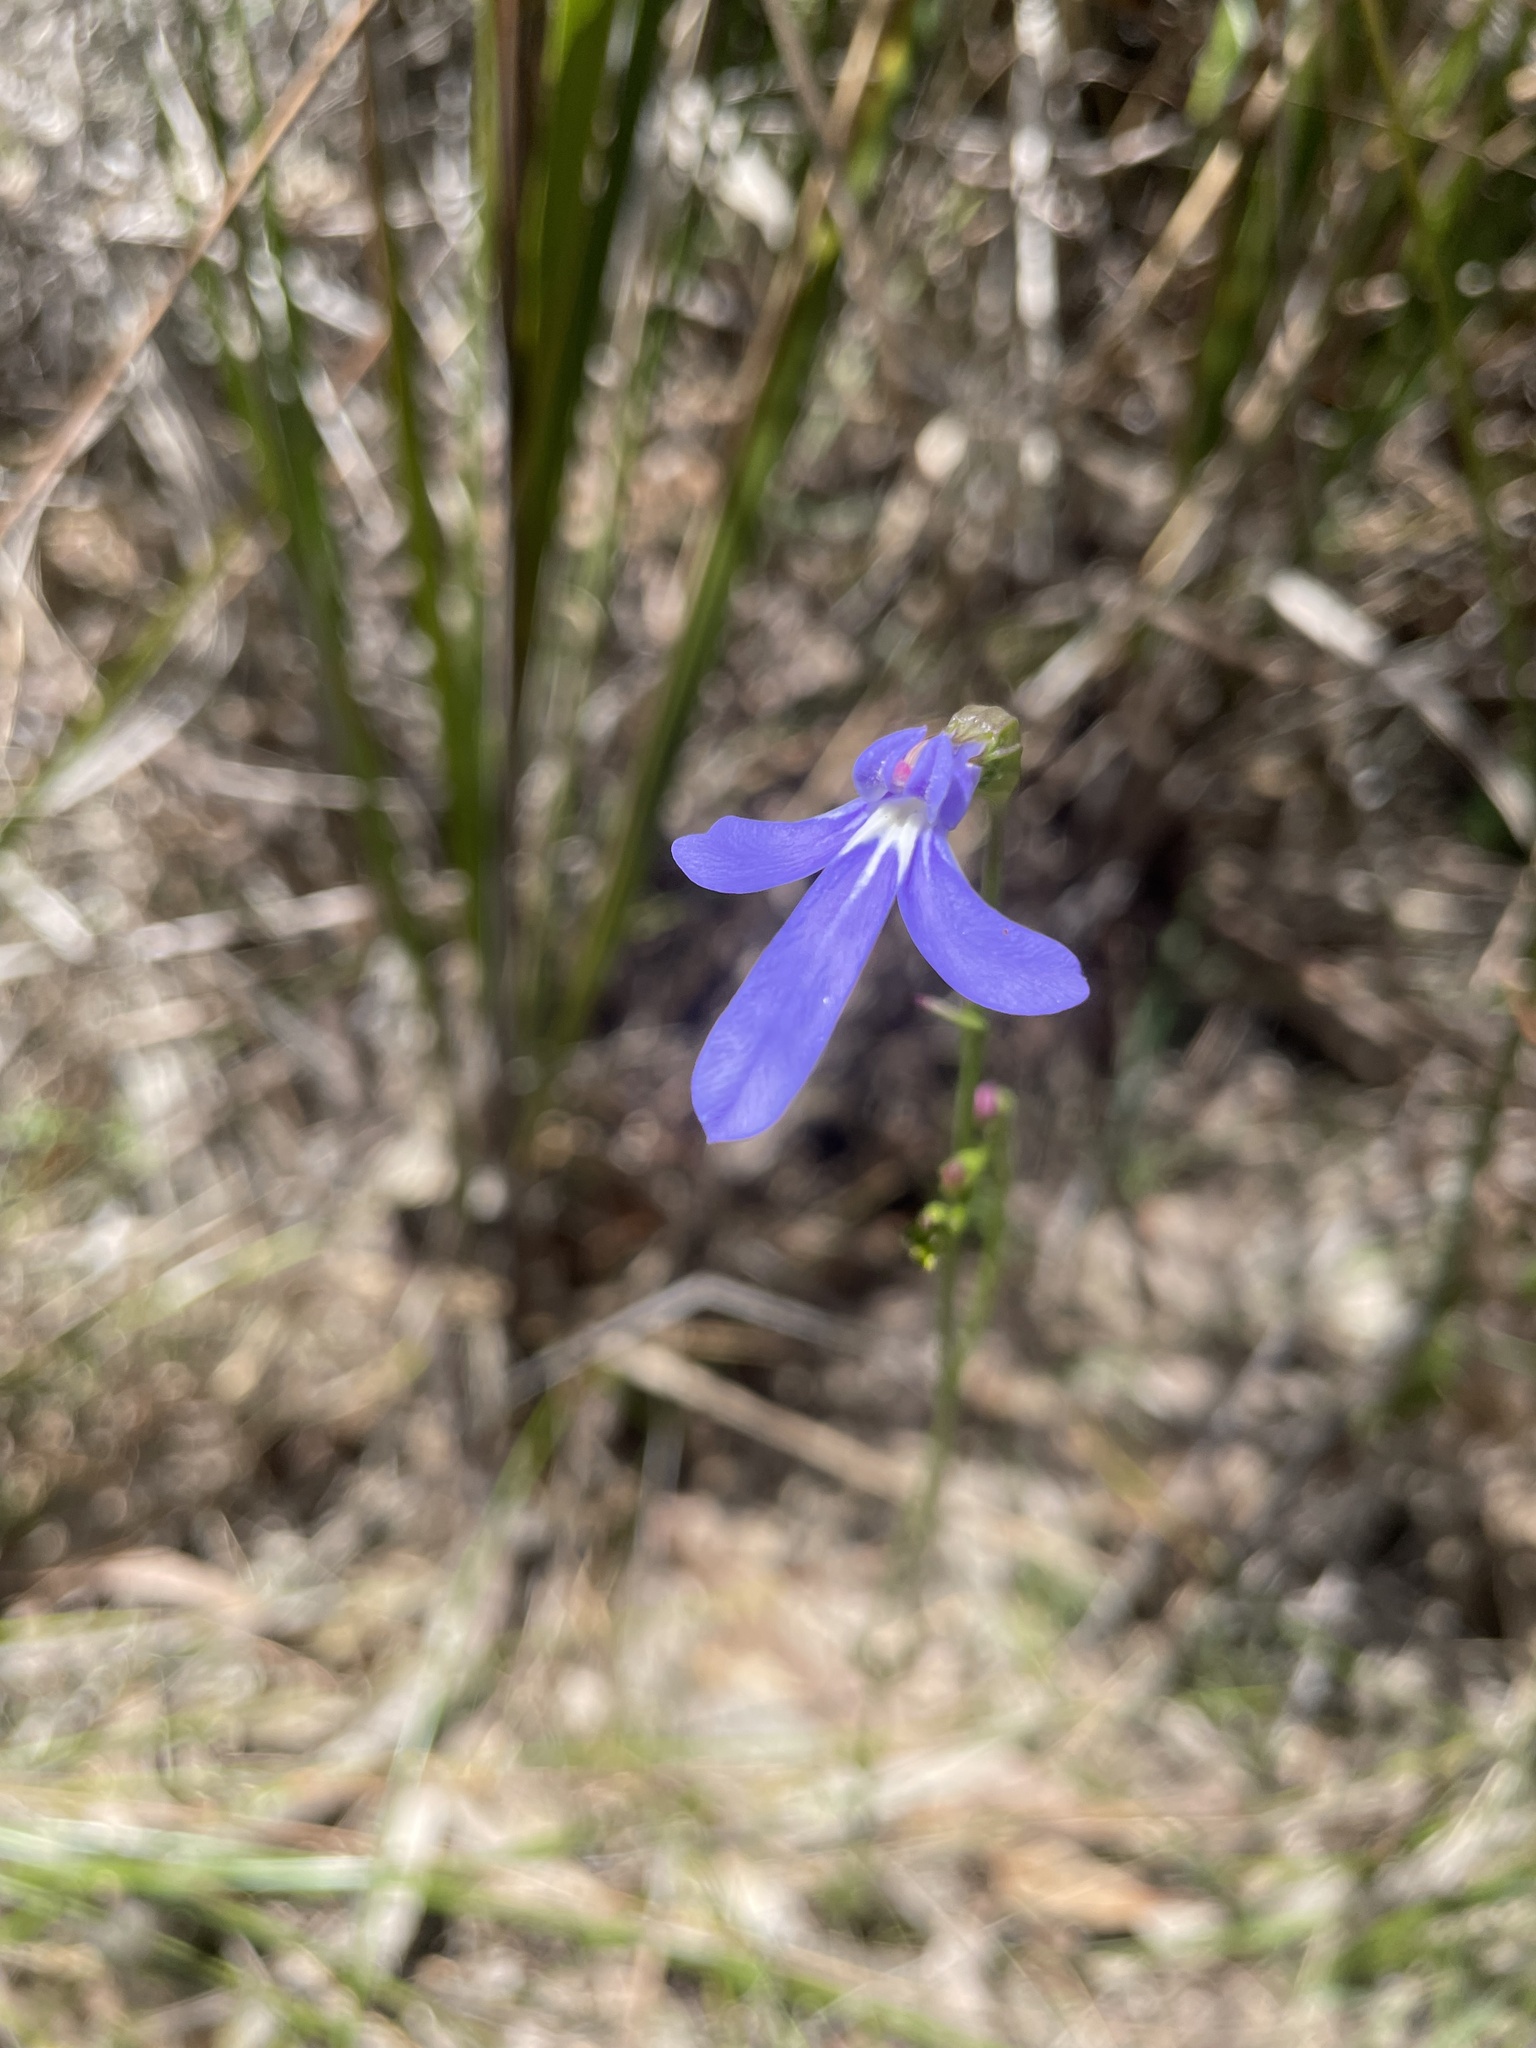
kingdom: Plantae
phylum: Tracheophyta
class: Magnoliopsida
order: Asterales
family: Campanulaceae
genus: Lobelia
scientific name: Lobelia gibbosa
